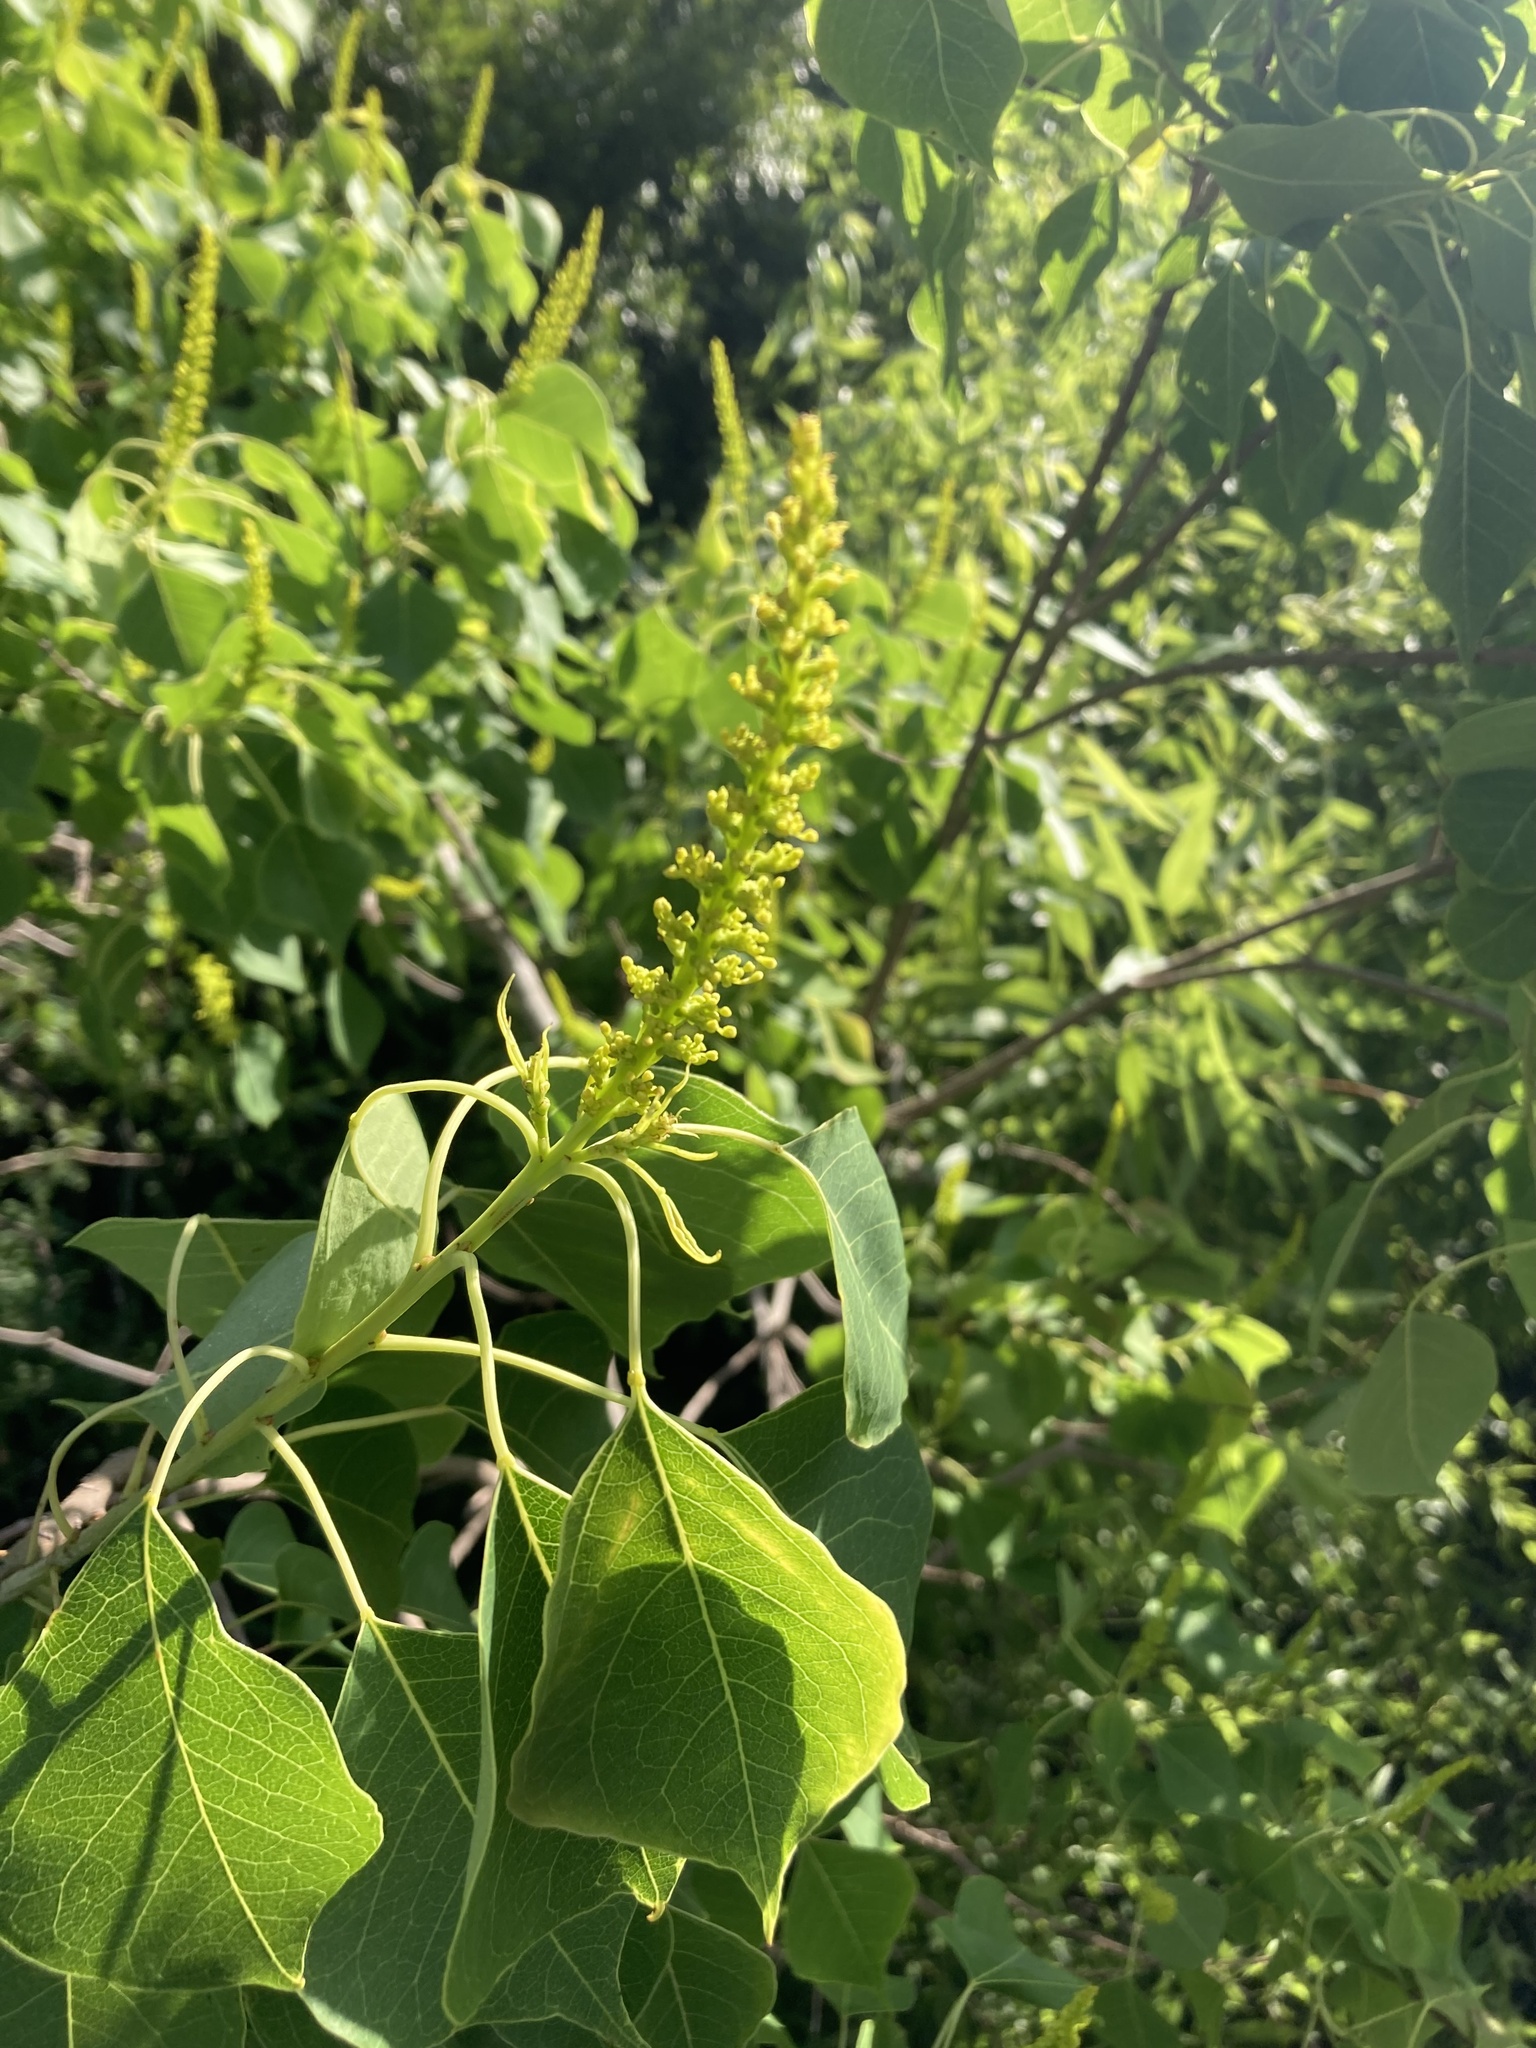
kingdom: Plantae
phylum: Tracheophyta
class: Magnoliopsida
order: Malpighiales
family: Euphorbiaceae
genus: Triadica
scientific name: Triadica sebifera
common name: Chinese tallow
